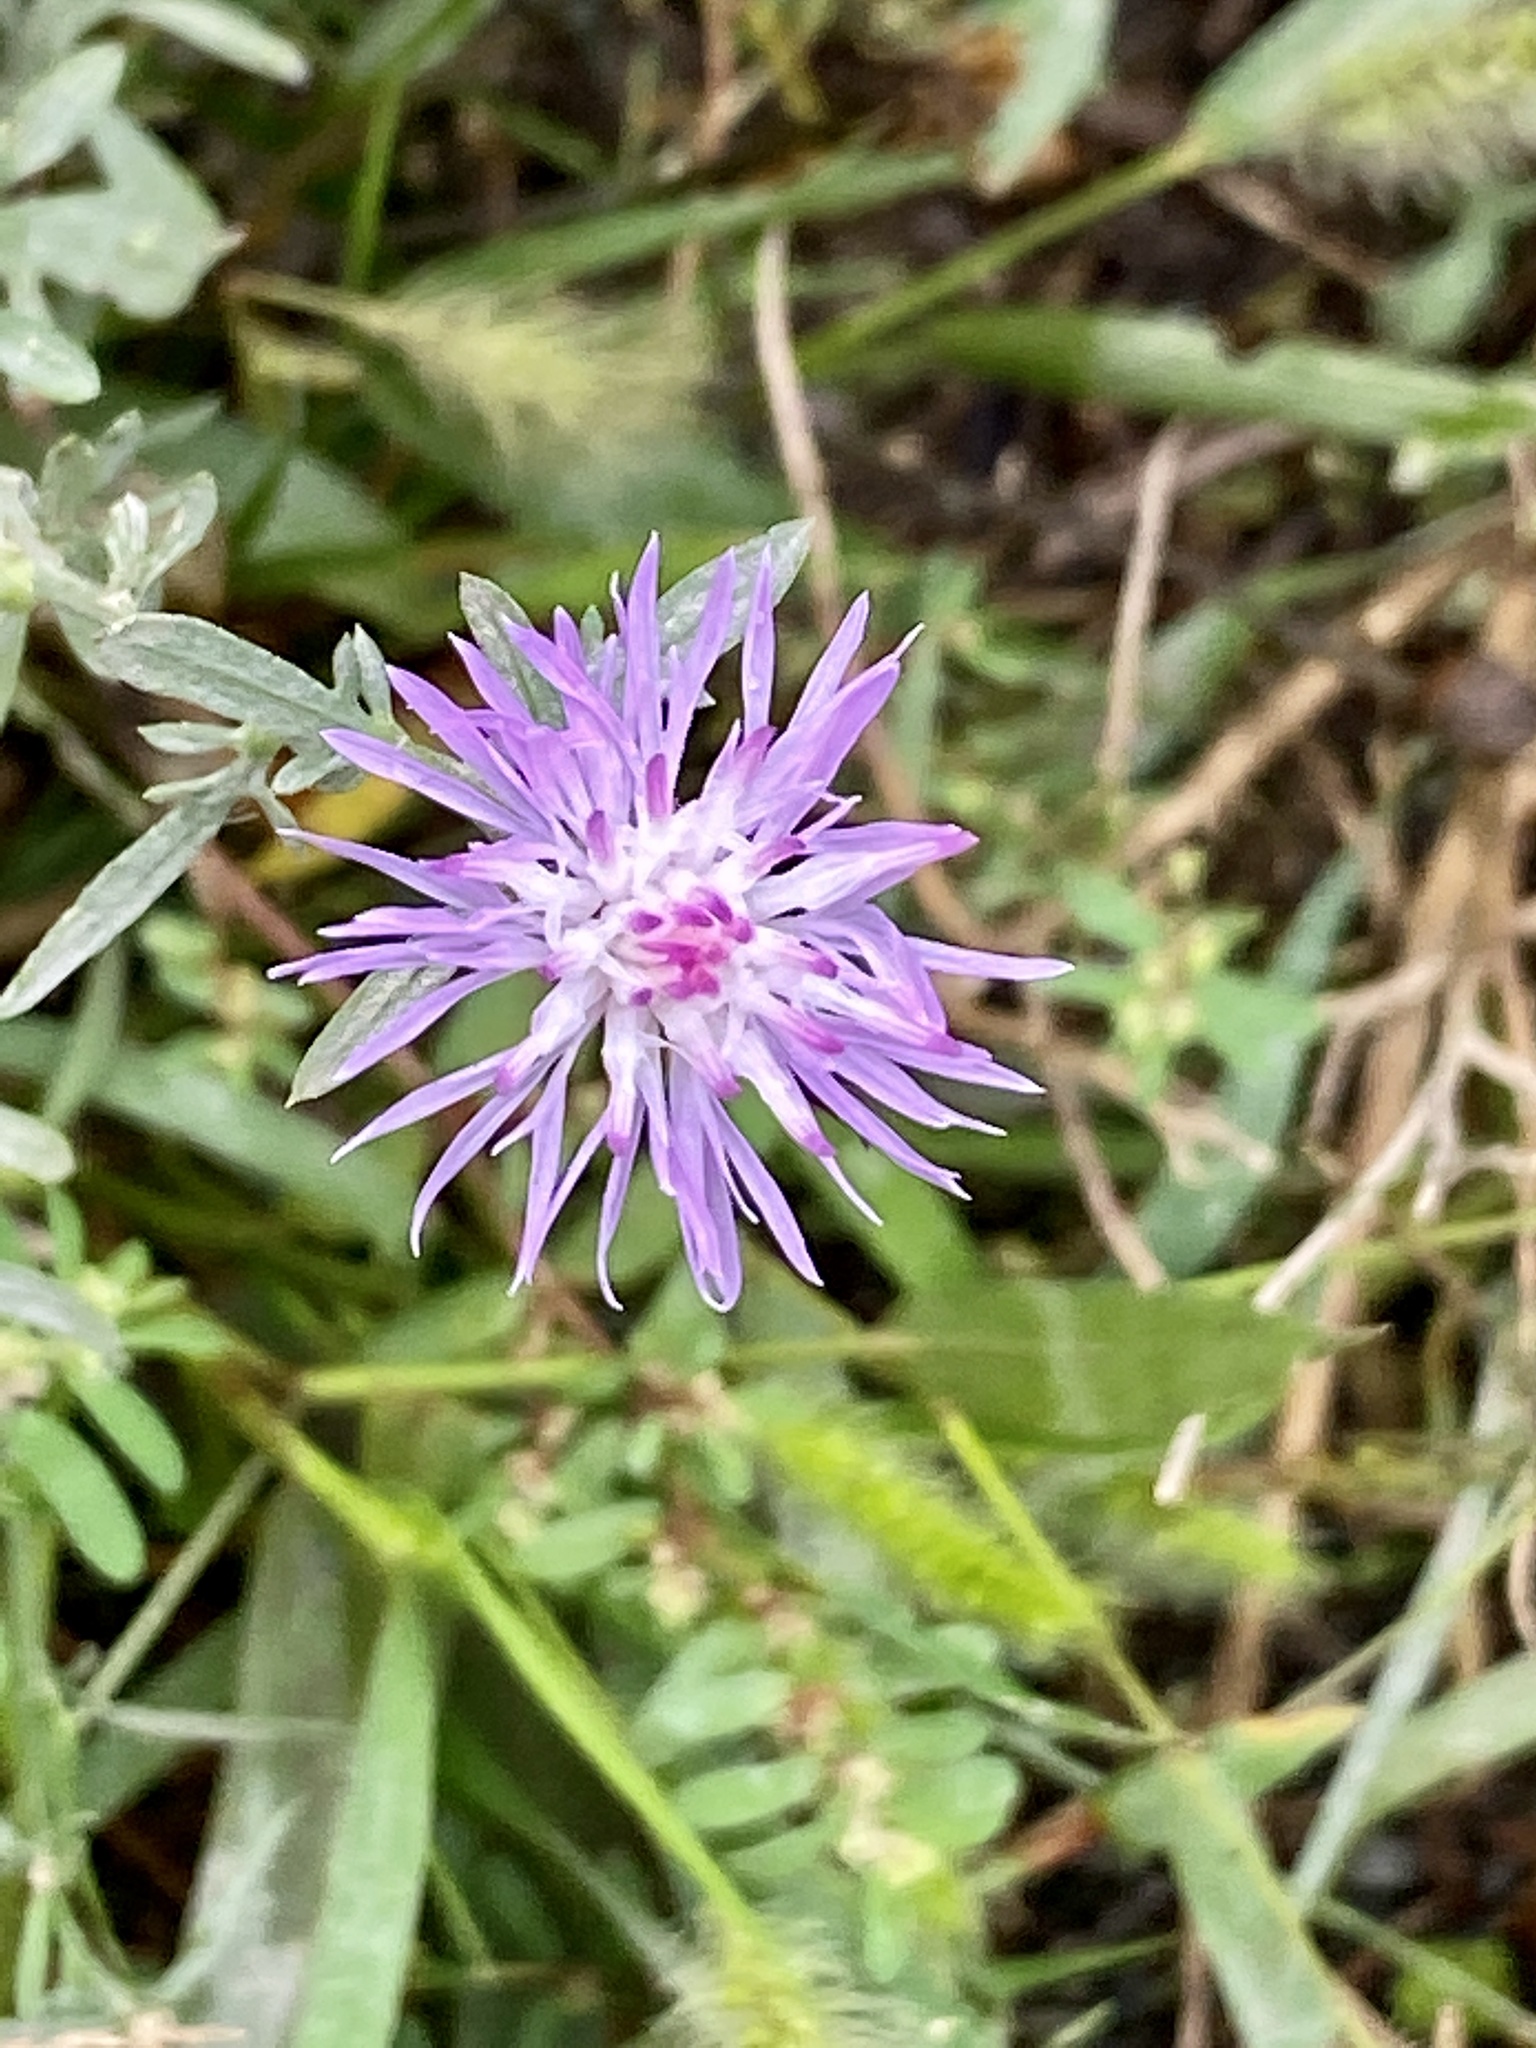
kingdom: Plantae
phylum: Tracheophyta
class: Magnoliopsida
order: Asterales
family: Asteraceae
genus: Centaurea
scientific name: Centaurea stoebe
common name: Spotted knapweed
